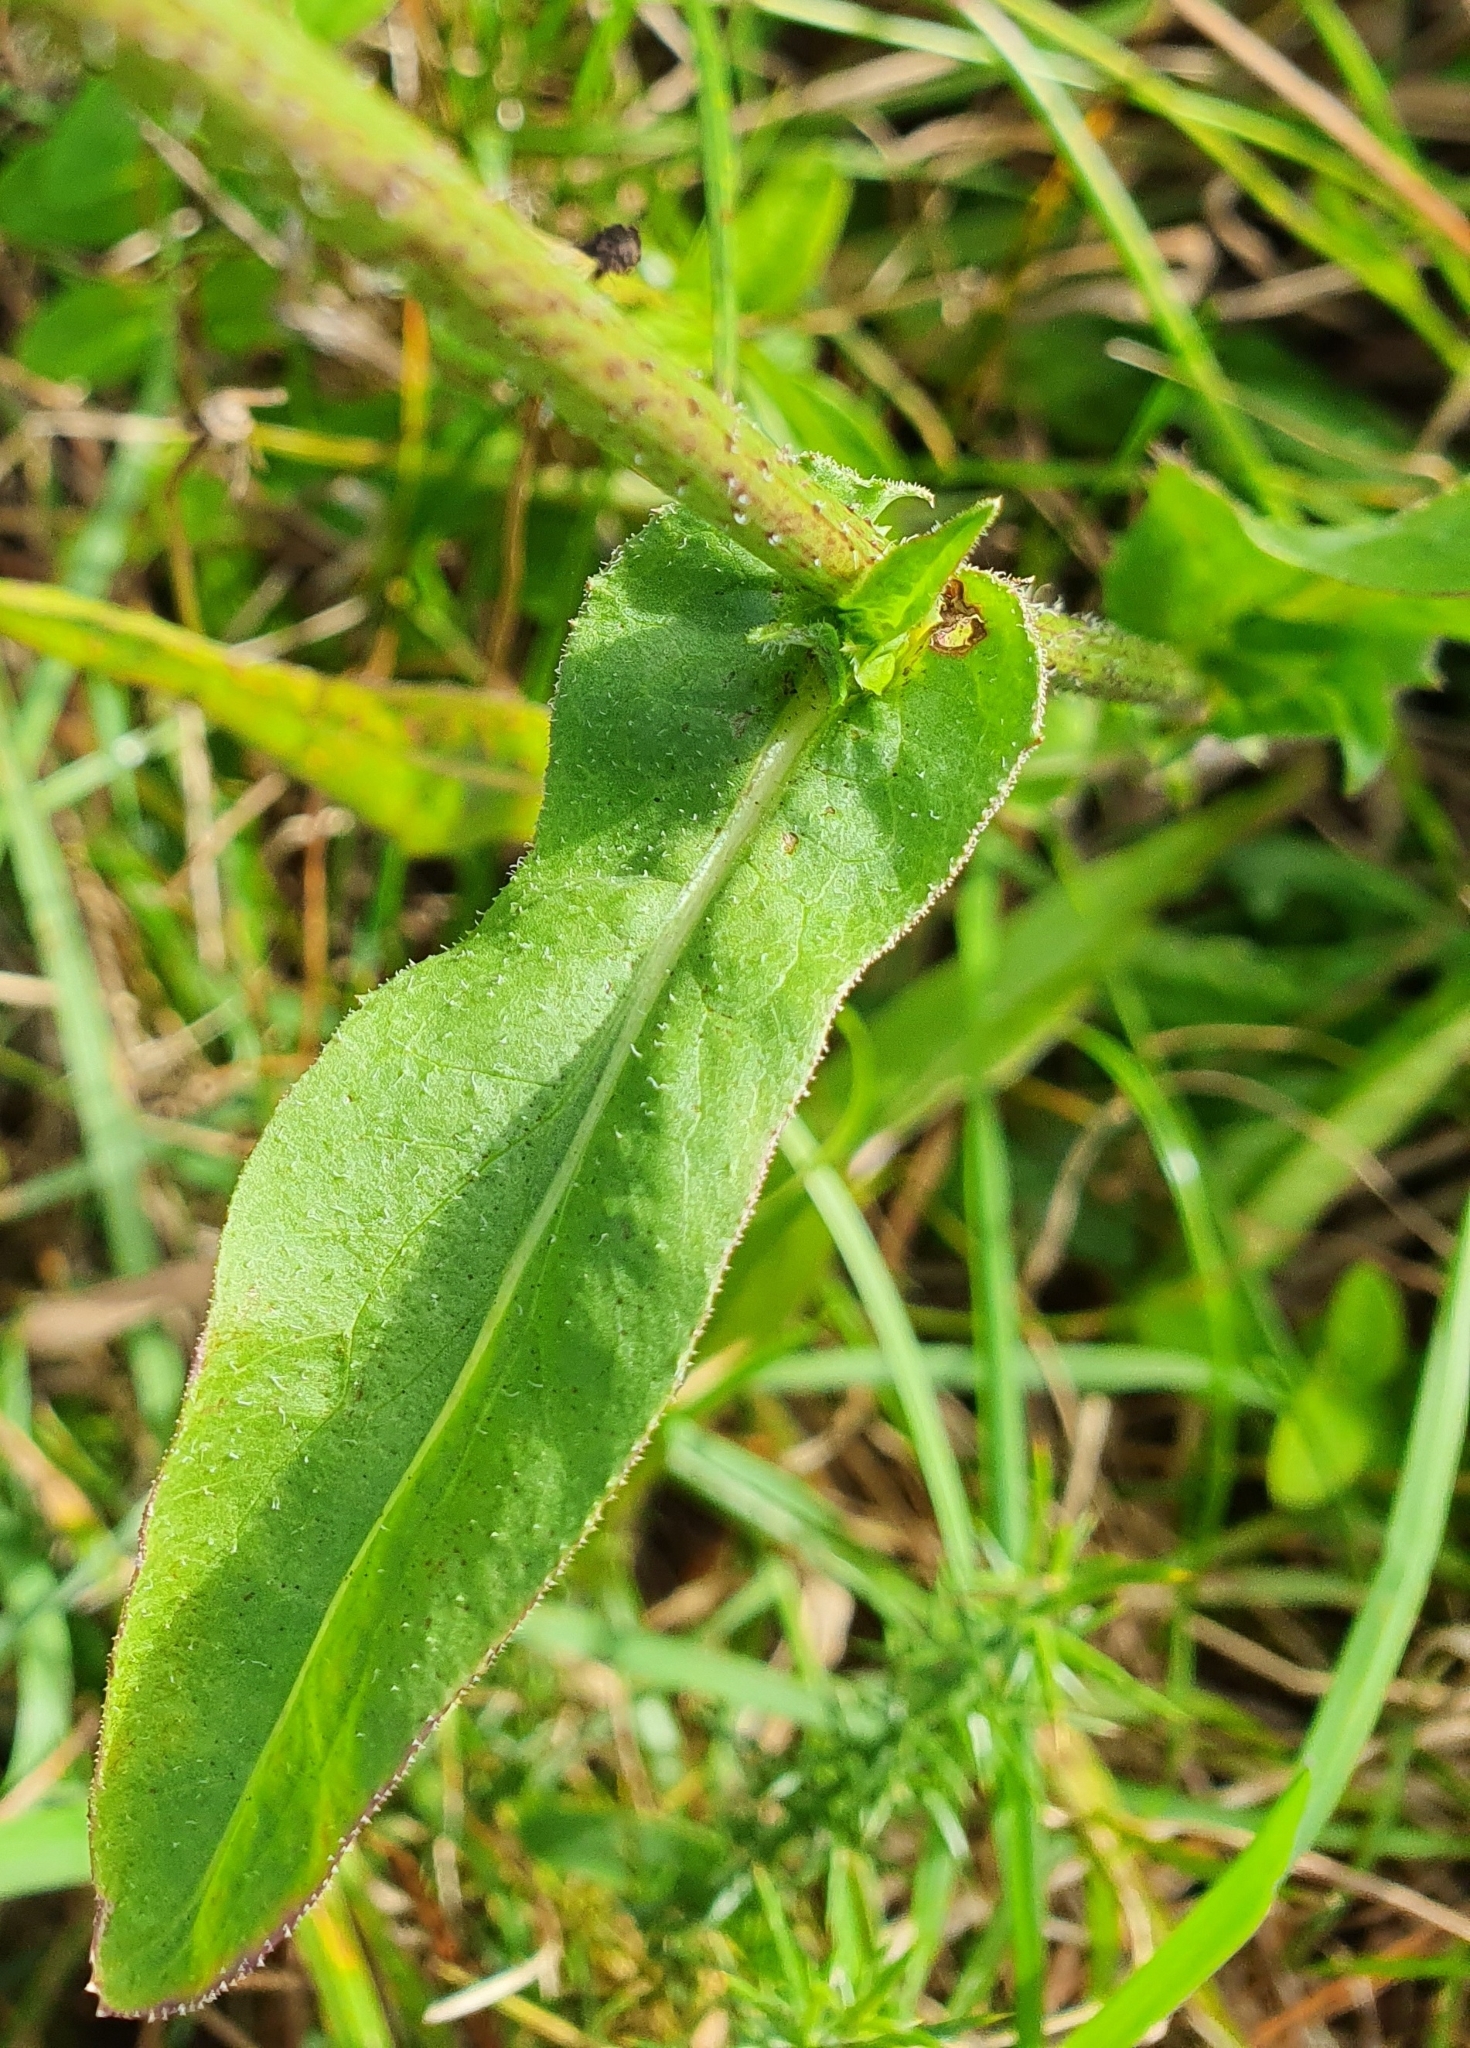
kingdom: Plantae
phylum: Tracheophyta
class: Magnoliopsida
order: Asterales
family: Asteraceae
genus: Cichorium
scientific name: Cichorium intybus
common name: Chicory
